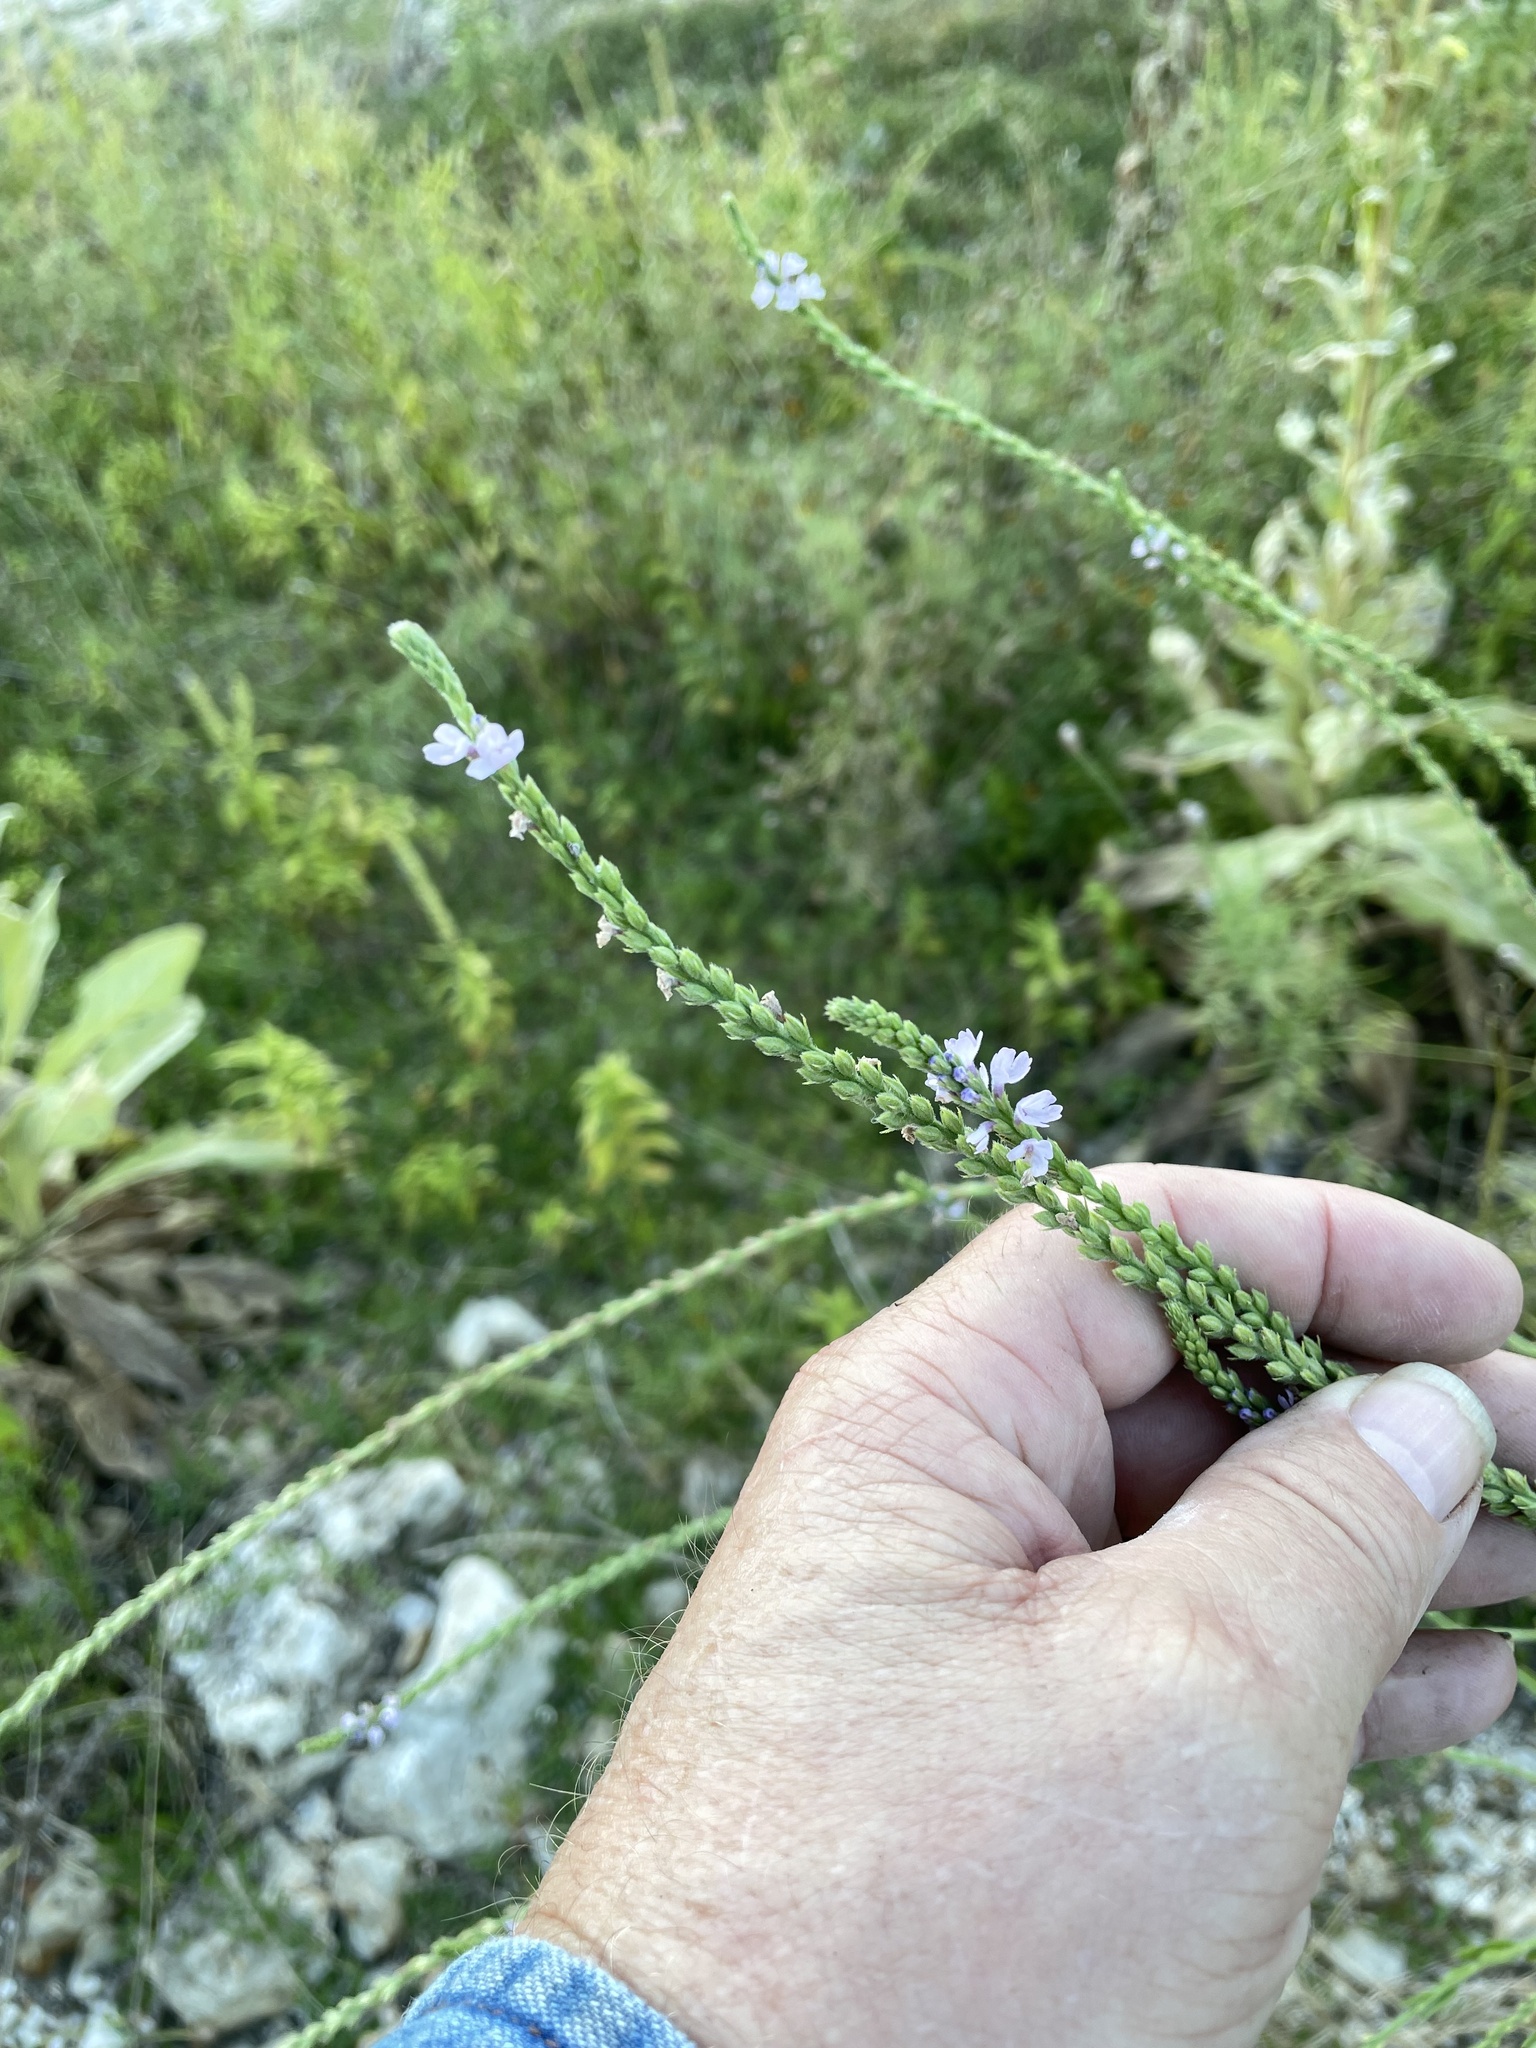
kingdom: Plantae
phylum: Tracheophyta
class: Magnoliopsida
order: Lamiales
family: Verbenaceae
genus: Verbena
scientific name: Verbena xutha
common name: Gulf vervain
